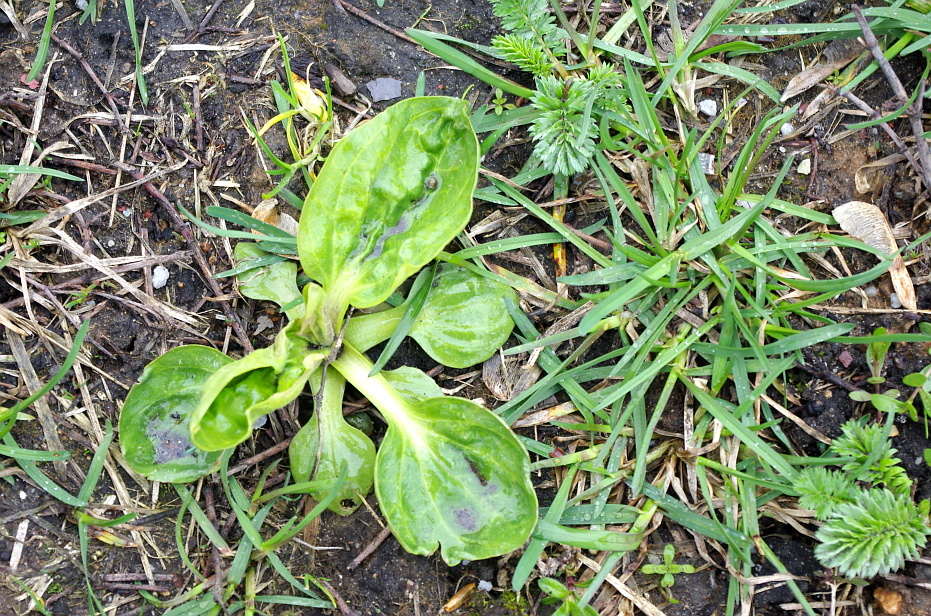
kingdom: Plantae
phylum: Tracheophyta
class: Magnoliopsida
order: Lamiales
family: Plantaginaceae
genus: Plantago
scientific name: Plantago major
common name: Common plantain
